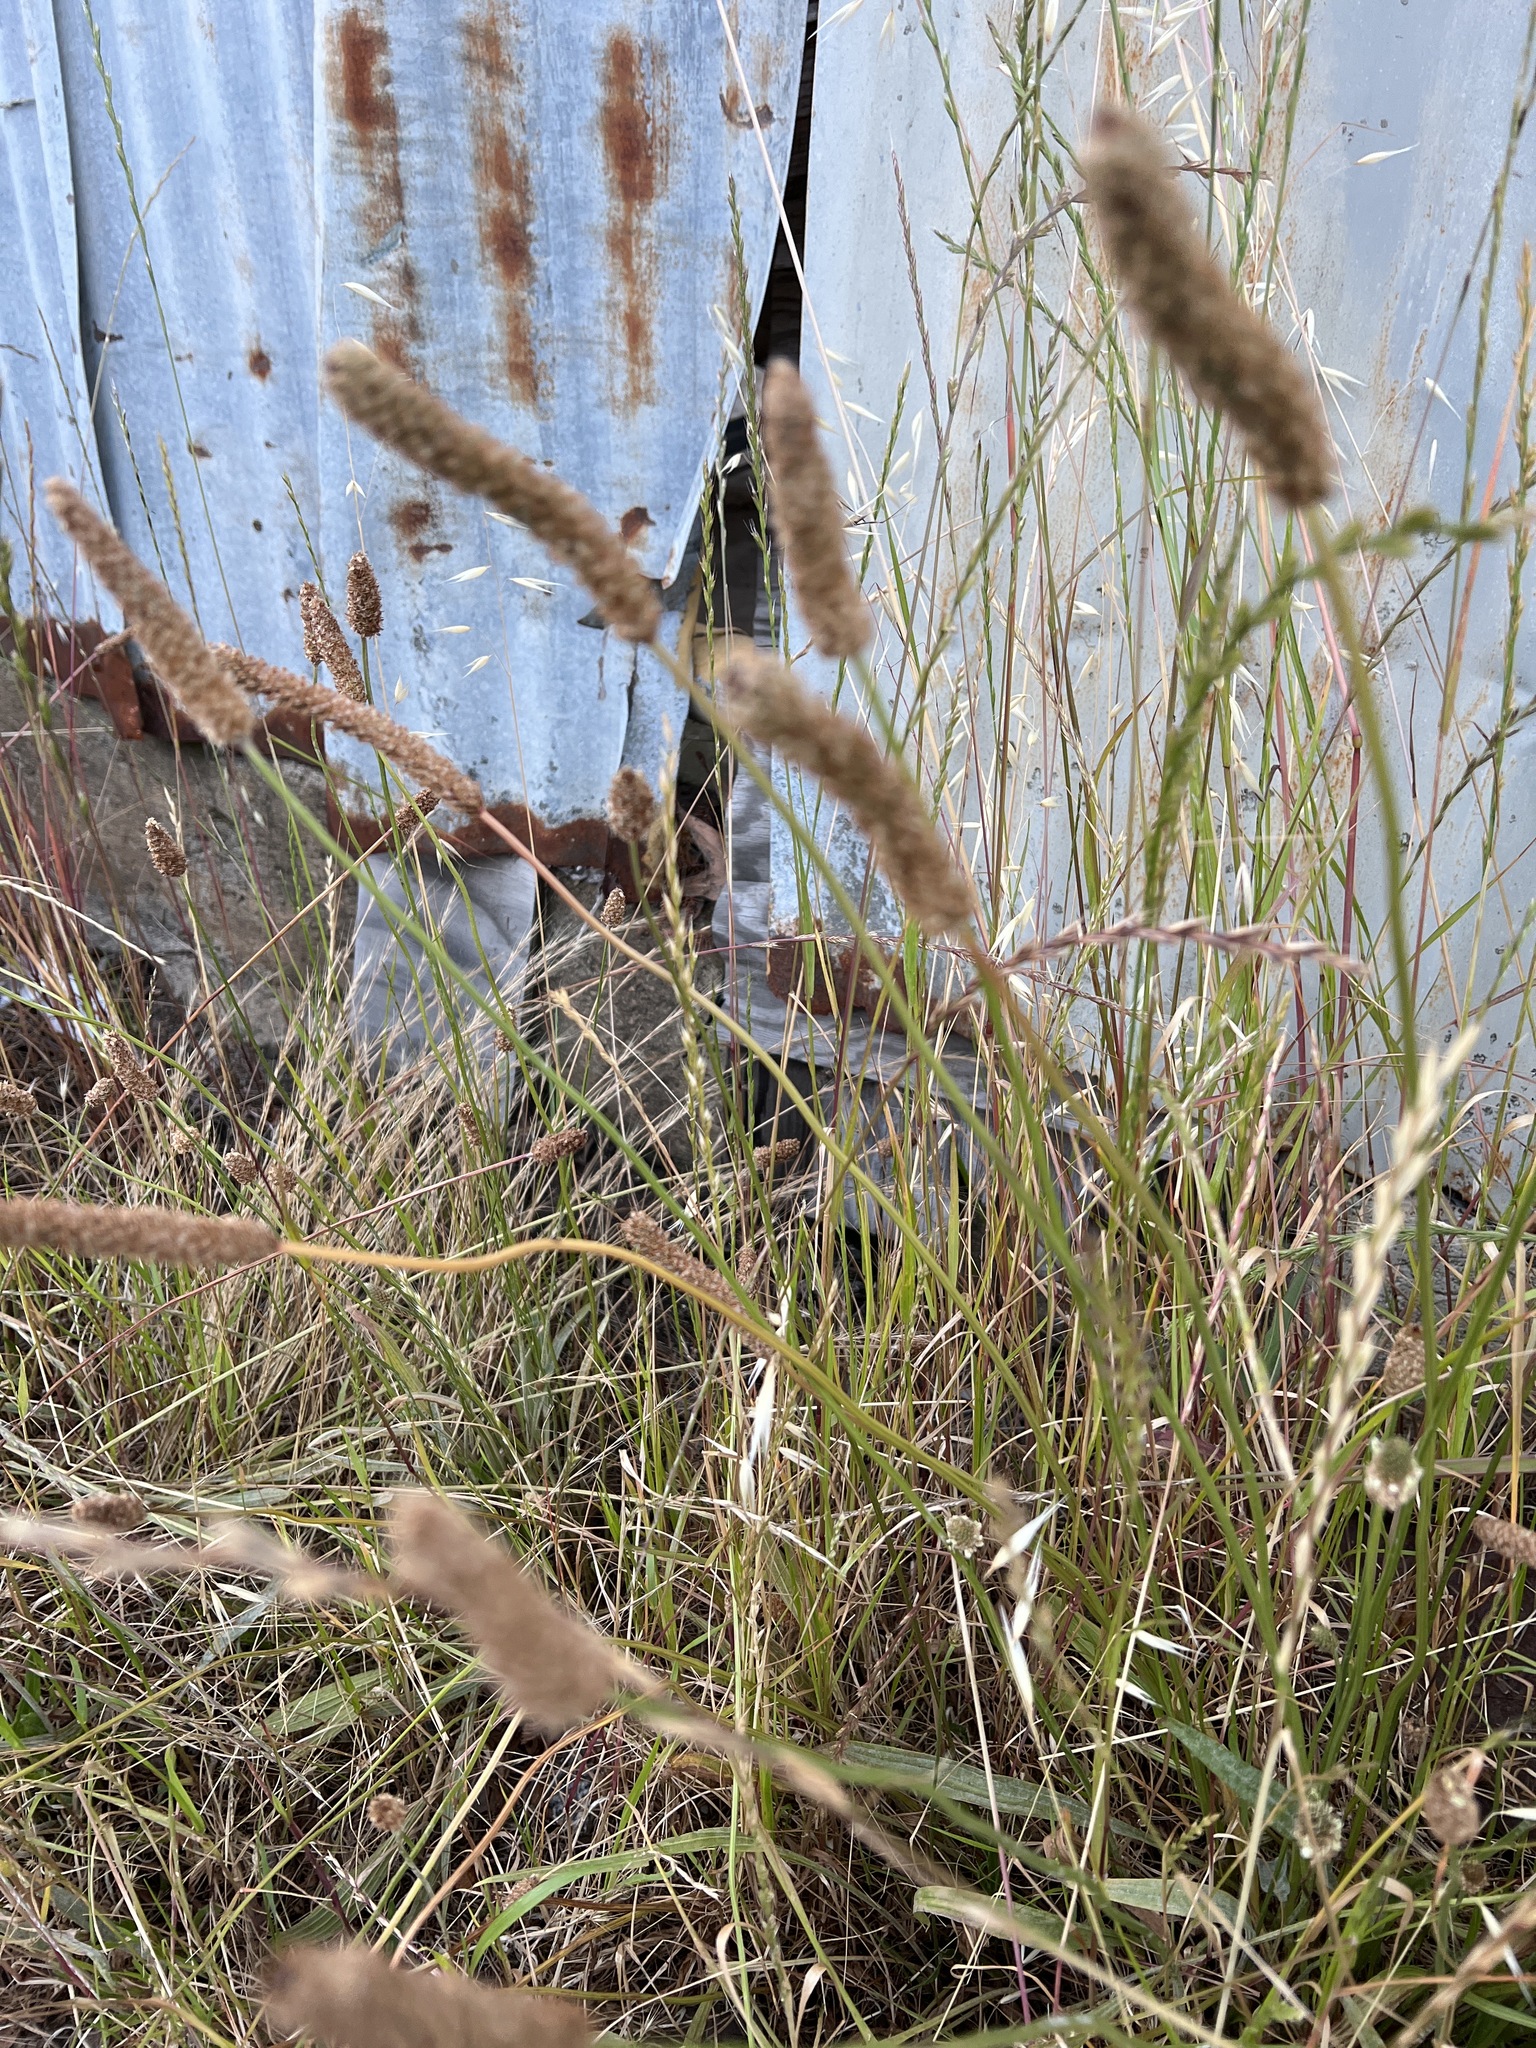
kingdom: Plantae
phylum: Tracheophyta
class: Magnoliopsida
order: Lamiales
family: Plantaginaceae
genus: Plantago
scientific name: Plantago lanceolata
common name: Ribwort plantain
